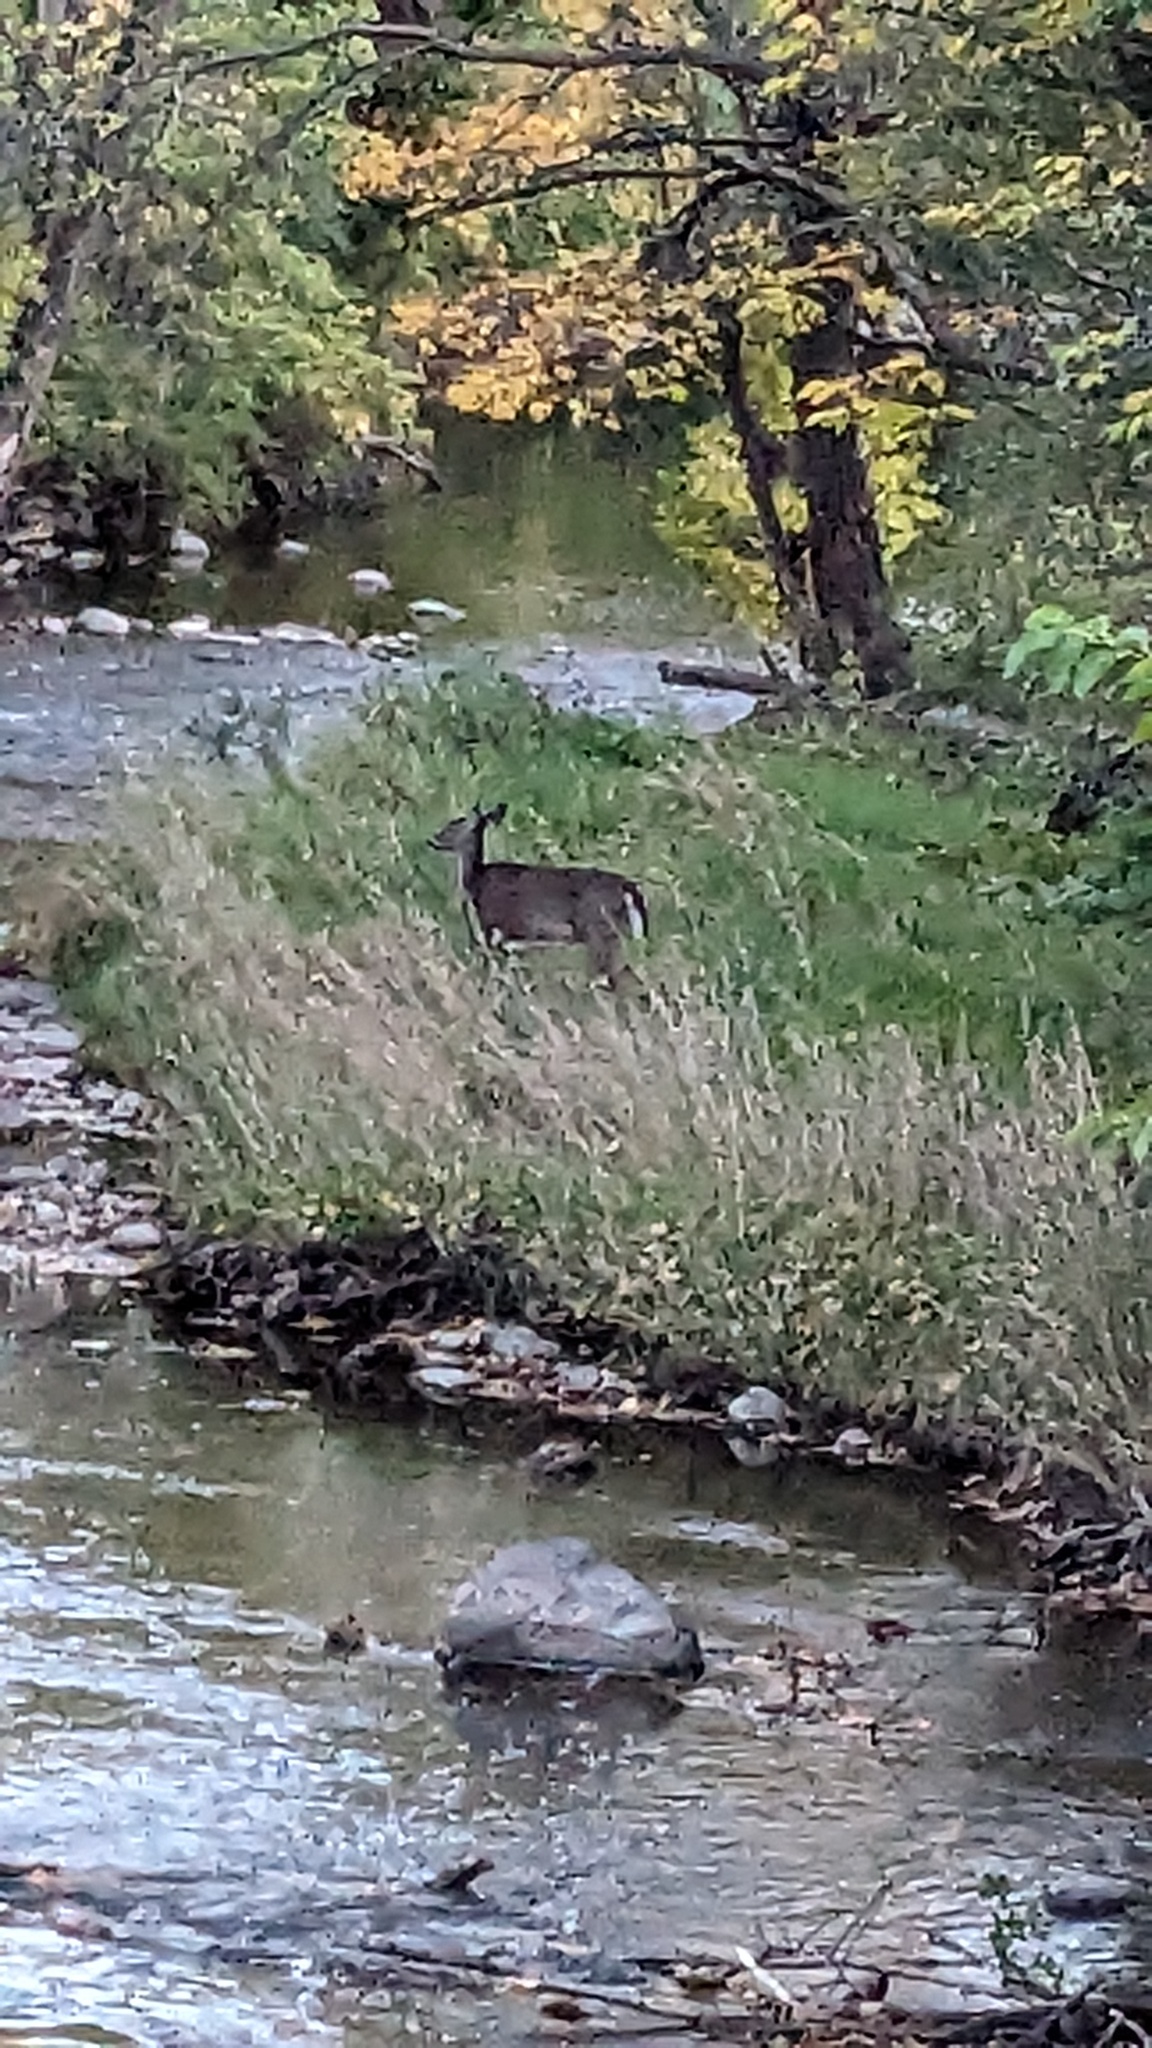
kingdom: Animalia
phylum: Chordata
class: Mammalia
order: Artiodactyla
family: Cervidae
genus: Odocoileus
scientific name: Odocoileus virginianus
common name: White-tailed deer
